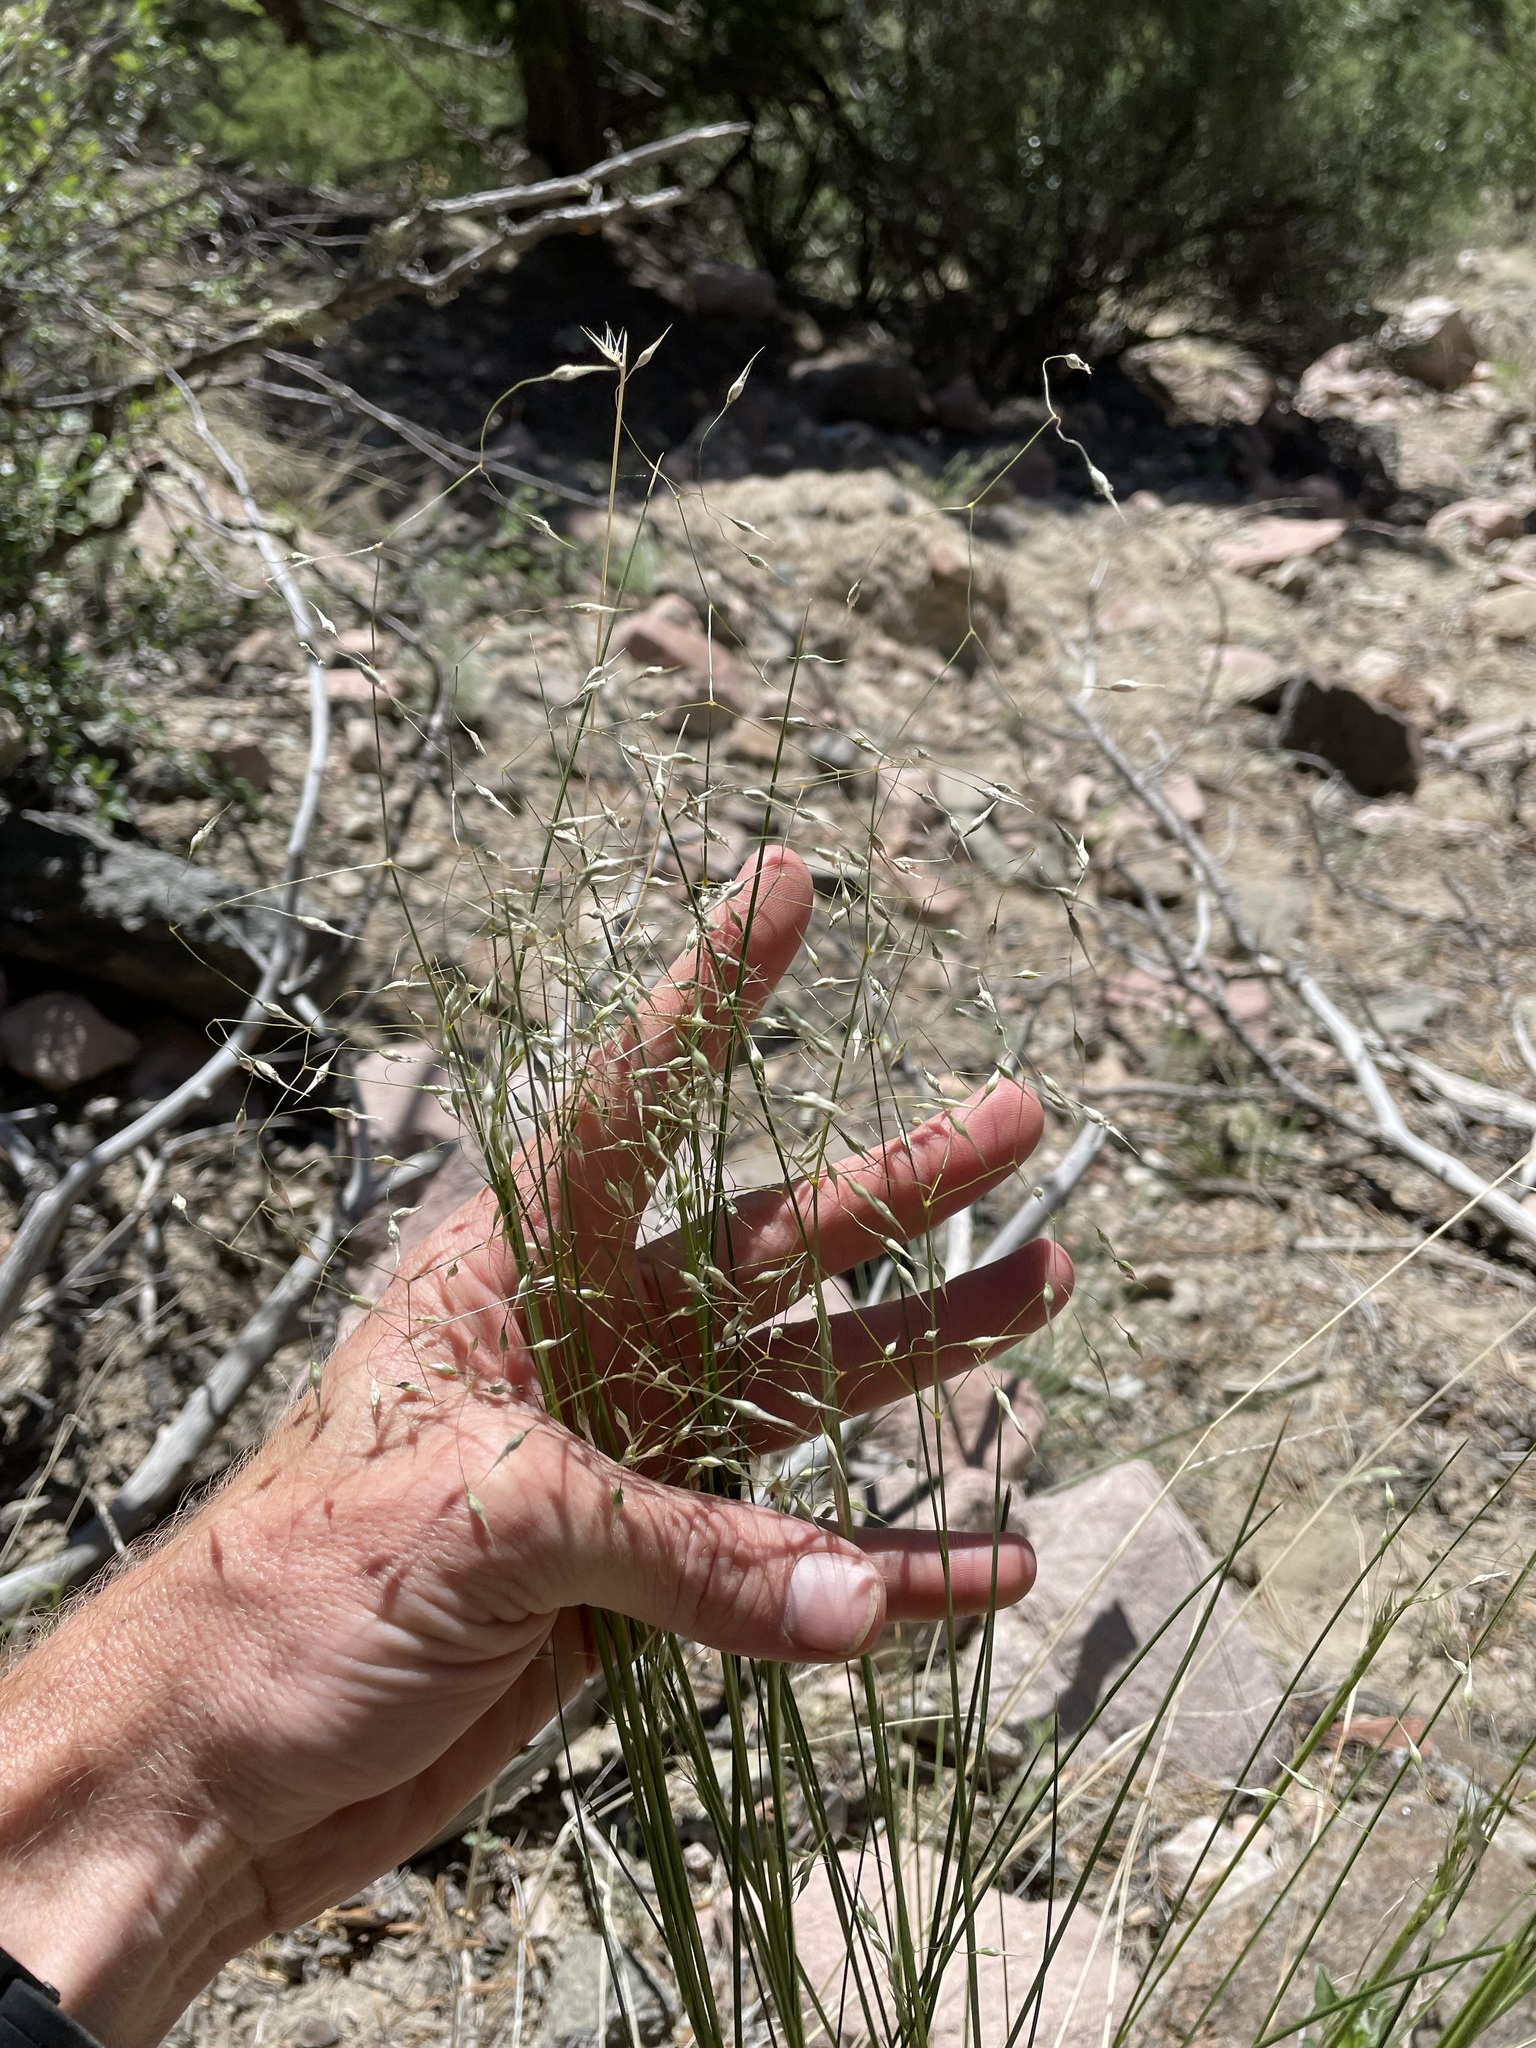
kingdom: Plantae
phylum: Tracheophyta
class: Liliopsida
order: Poales
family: Poaceae
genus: Eriocoma
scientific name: Eriocoma hymenoides
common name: Indian mountain ricegrass
